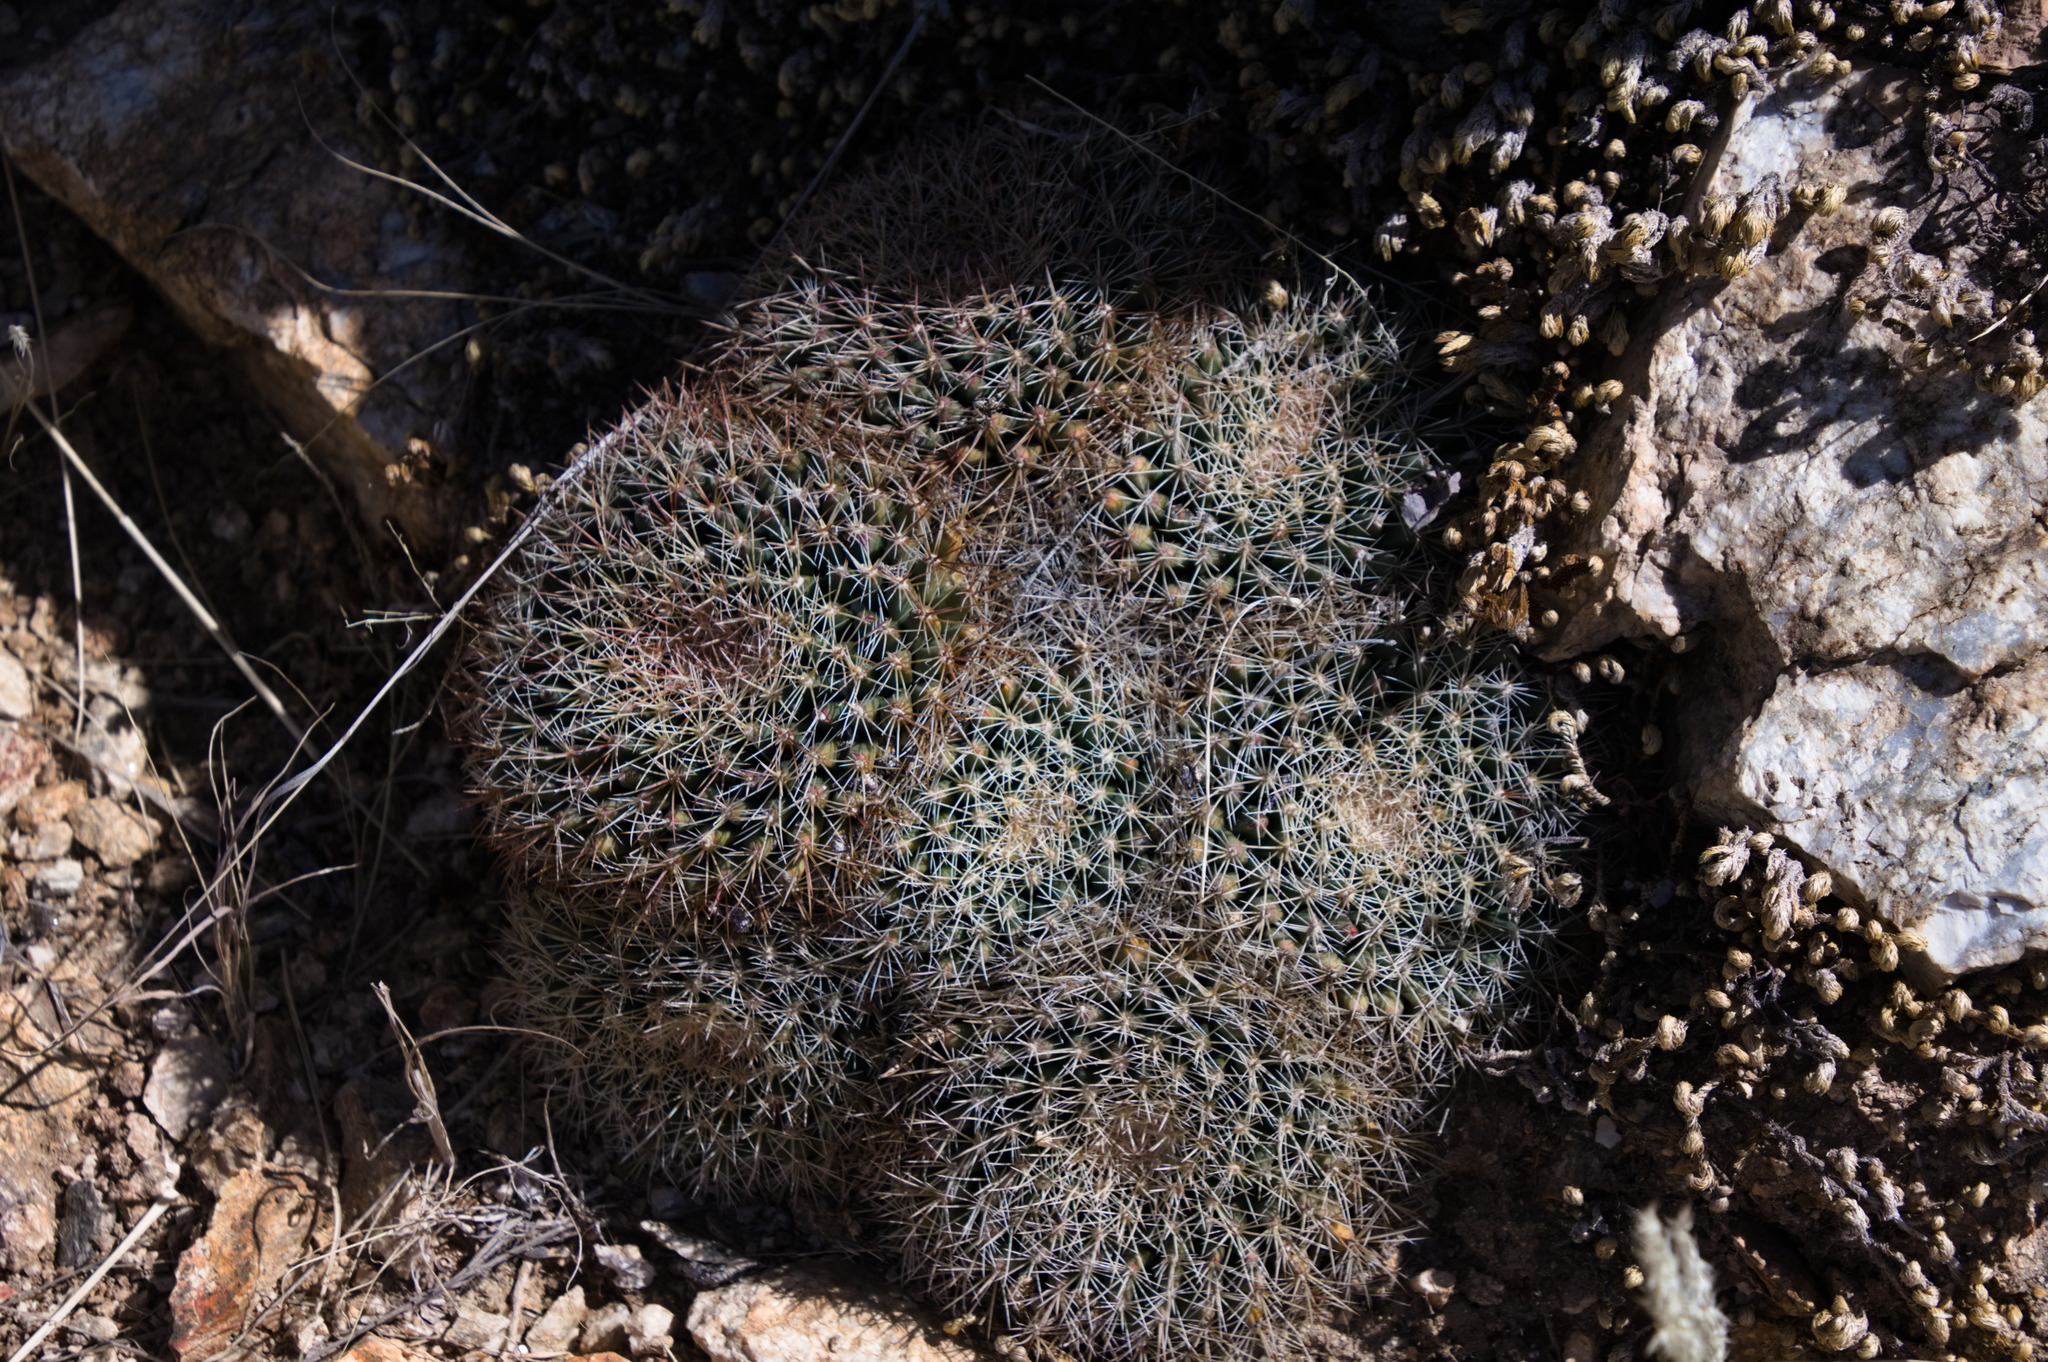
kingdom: Plantae
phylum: Tracheophyta
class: Magnoliopsida
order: Caryophyllales
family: Cactaceae
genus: Mammillaria
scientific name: Mammillaria heyderi
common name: Little nipple cactus
